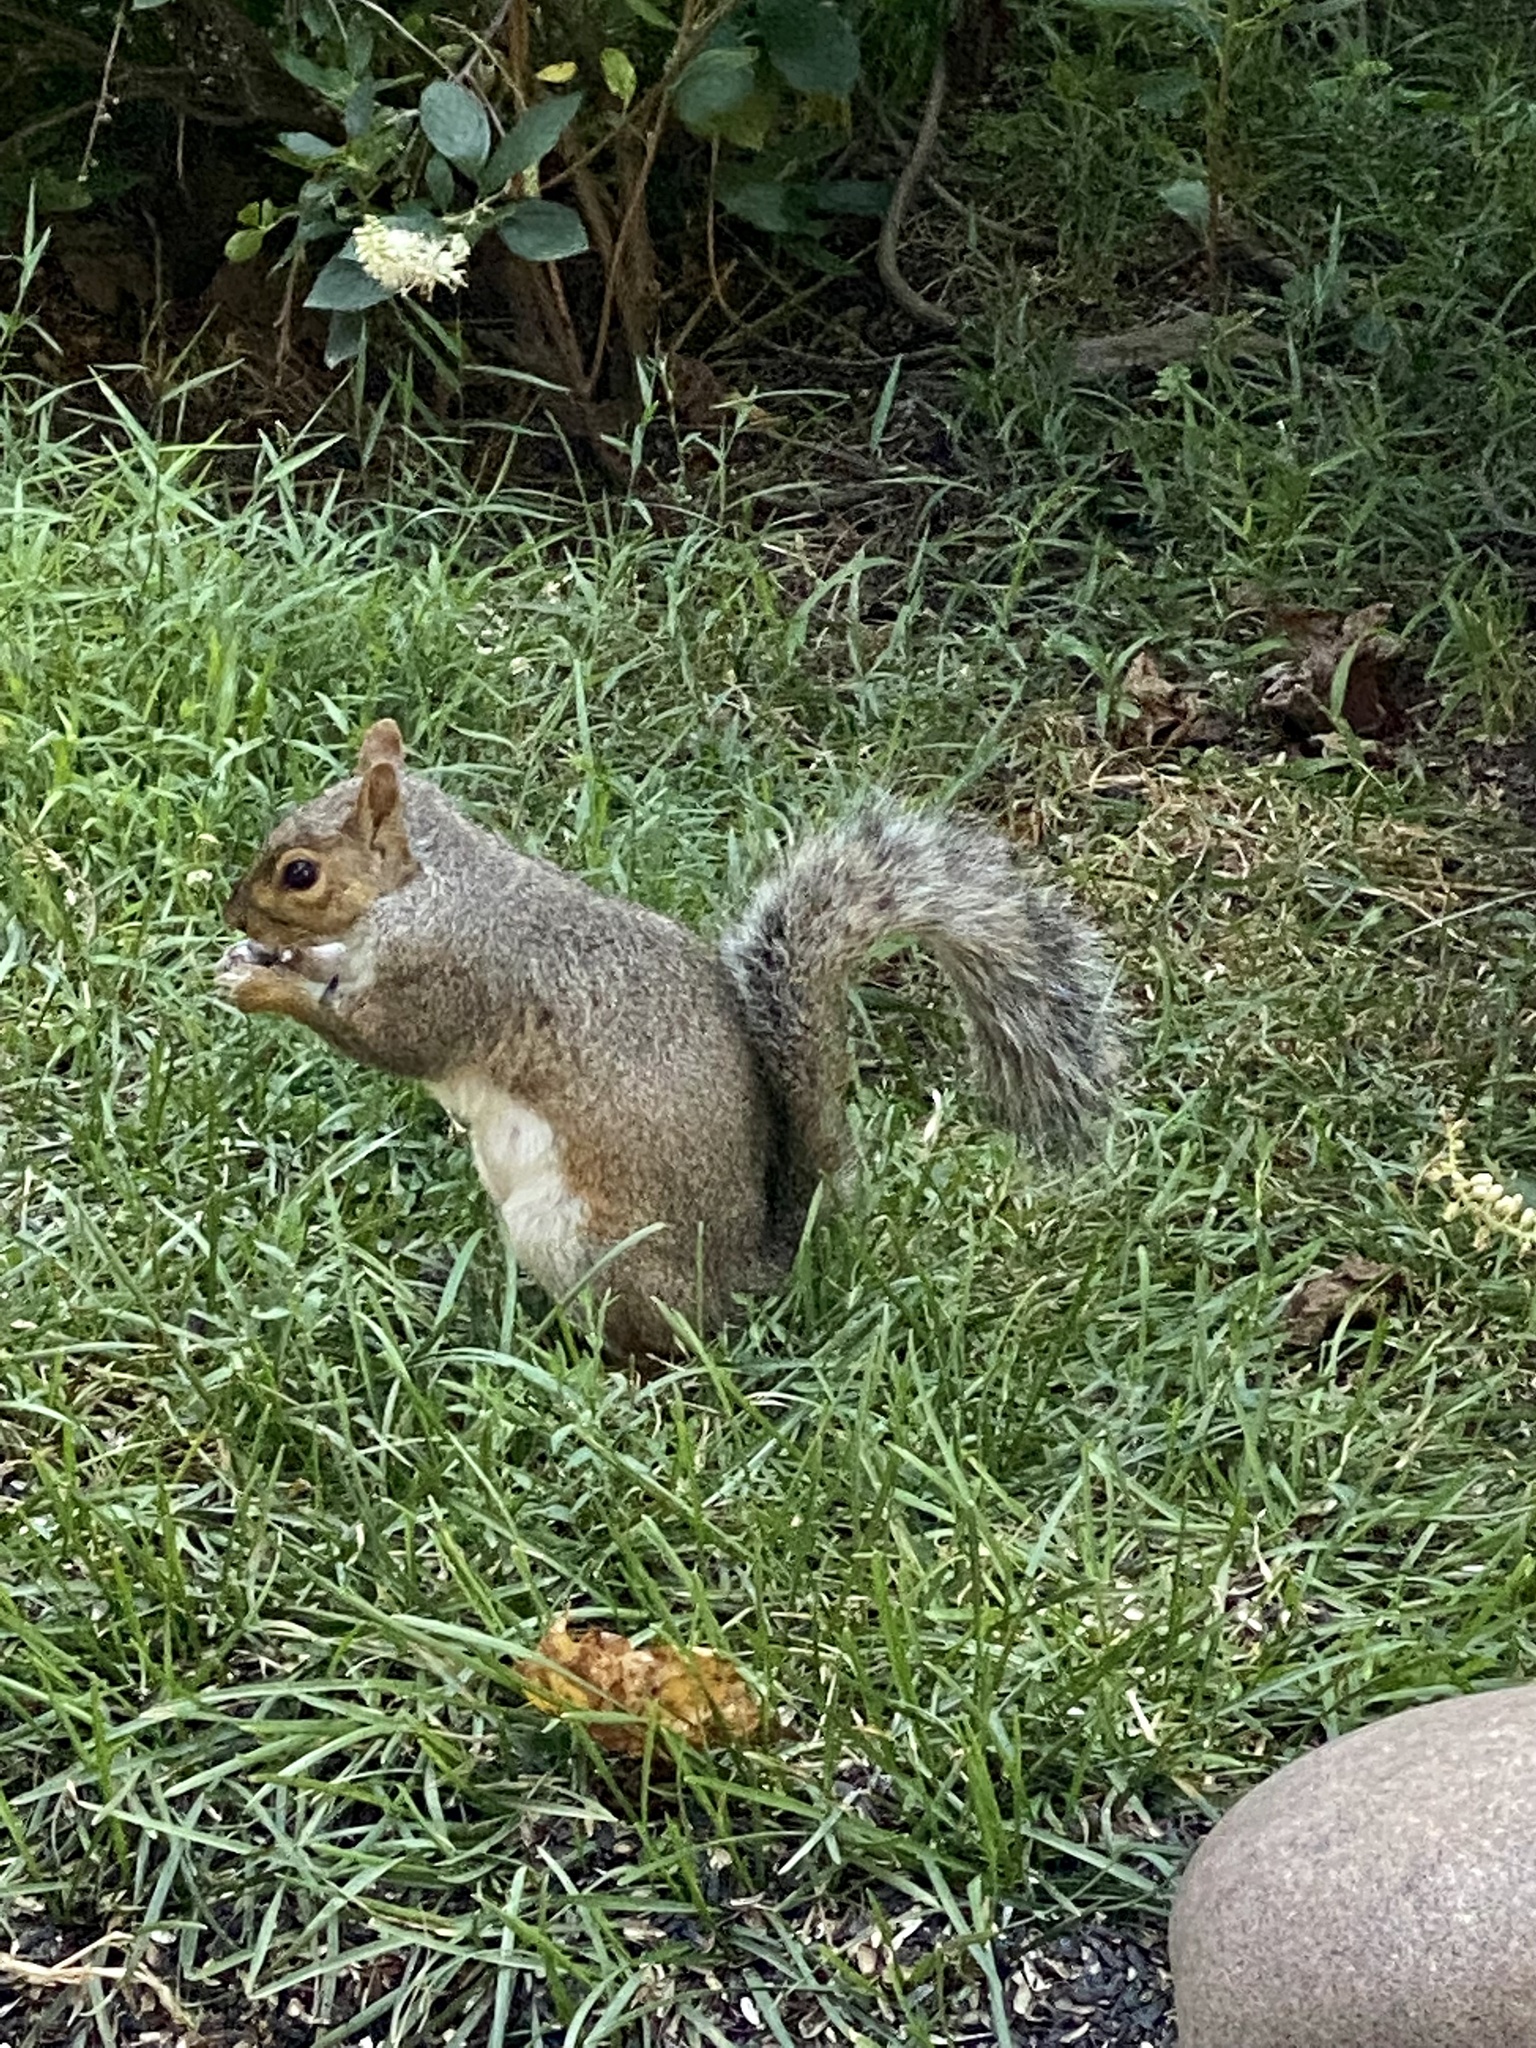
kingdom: Animalia
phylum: Chordata
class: Mammalia
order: Rodentia
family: Sciuridae
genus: Sciurus
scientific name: Sciurus carolinensis
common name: Eastern gray squirrel
